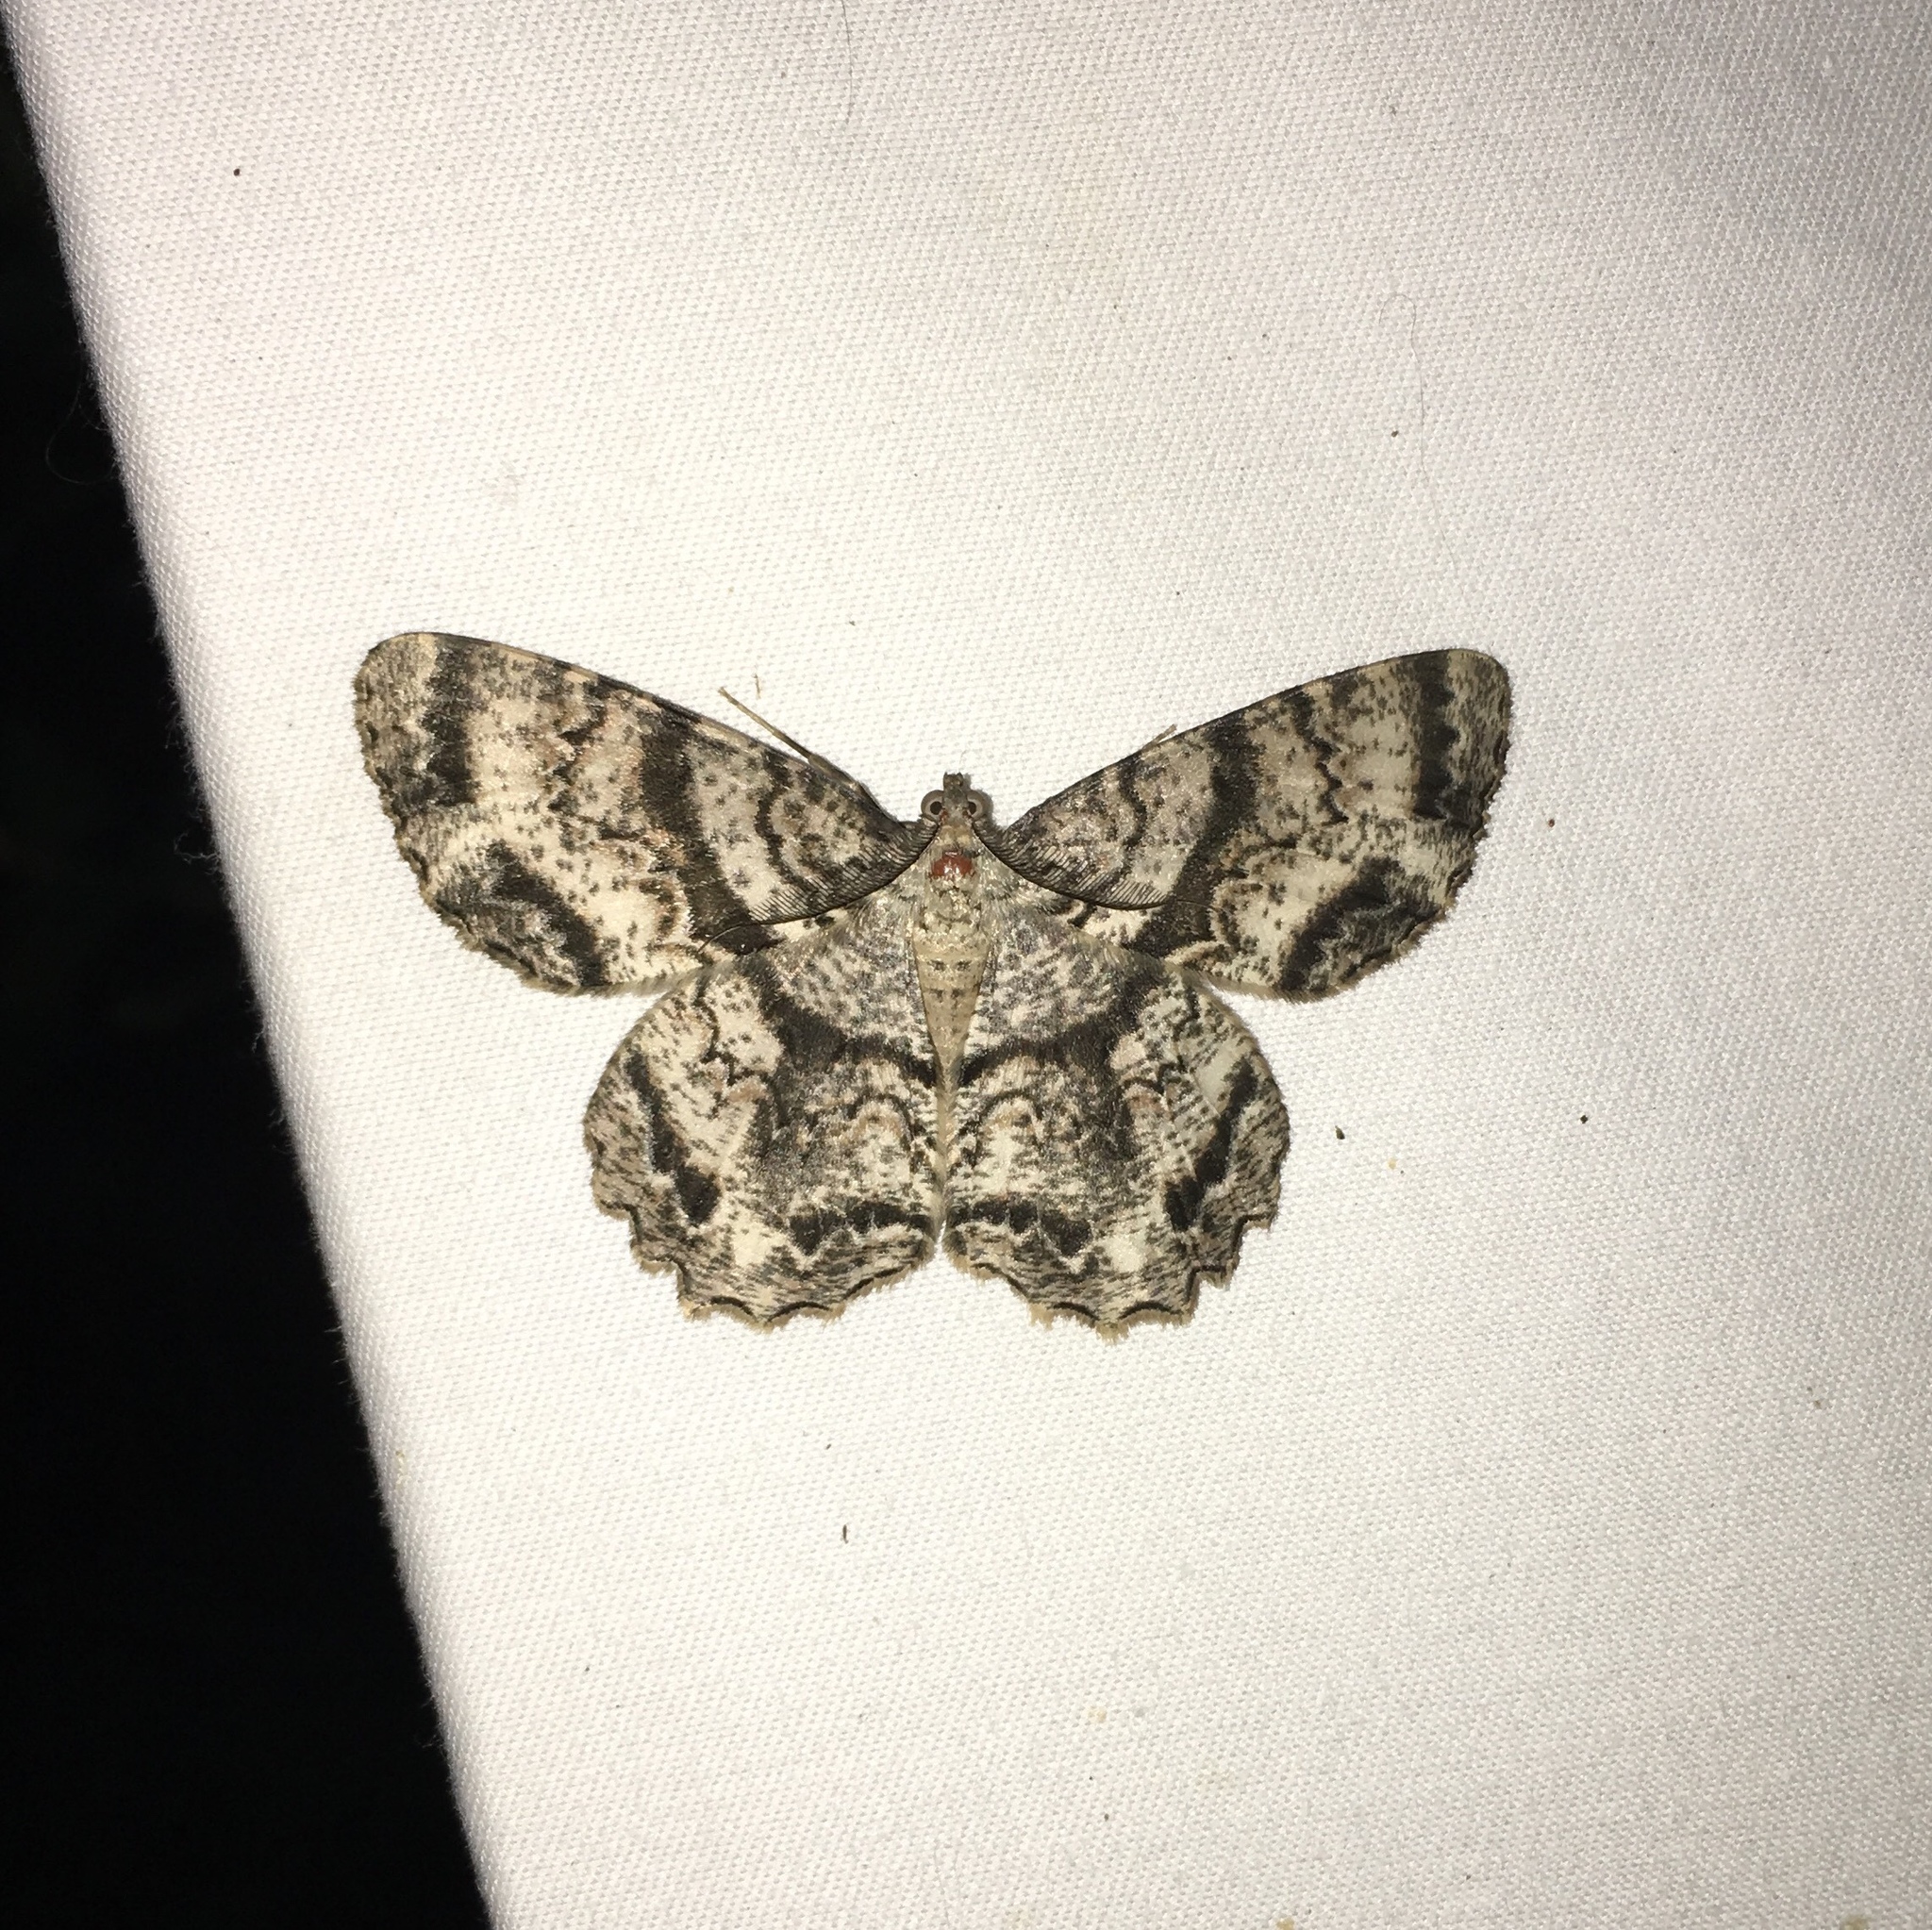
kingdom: Animalia
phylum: Arthropoda
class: Insecta
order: Lepidoptera
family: Geometridae
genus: Epimecis
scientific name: Epimecis hortaria
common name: Tulip-tree beauty
